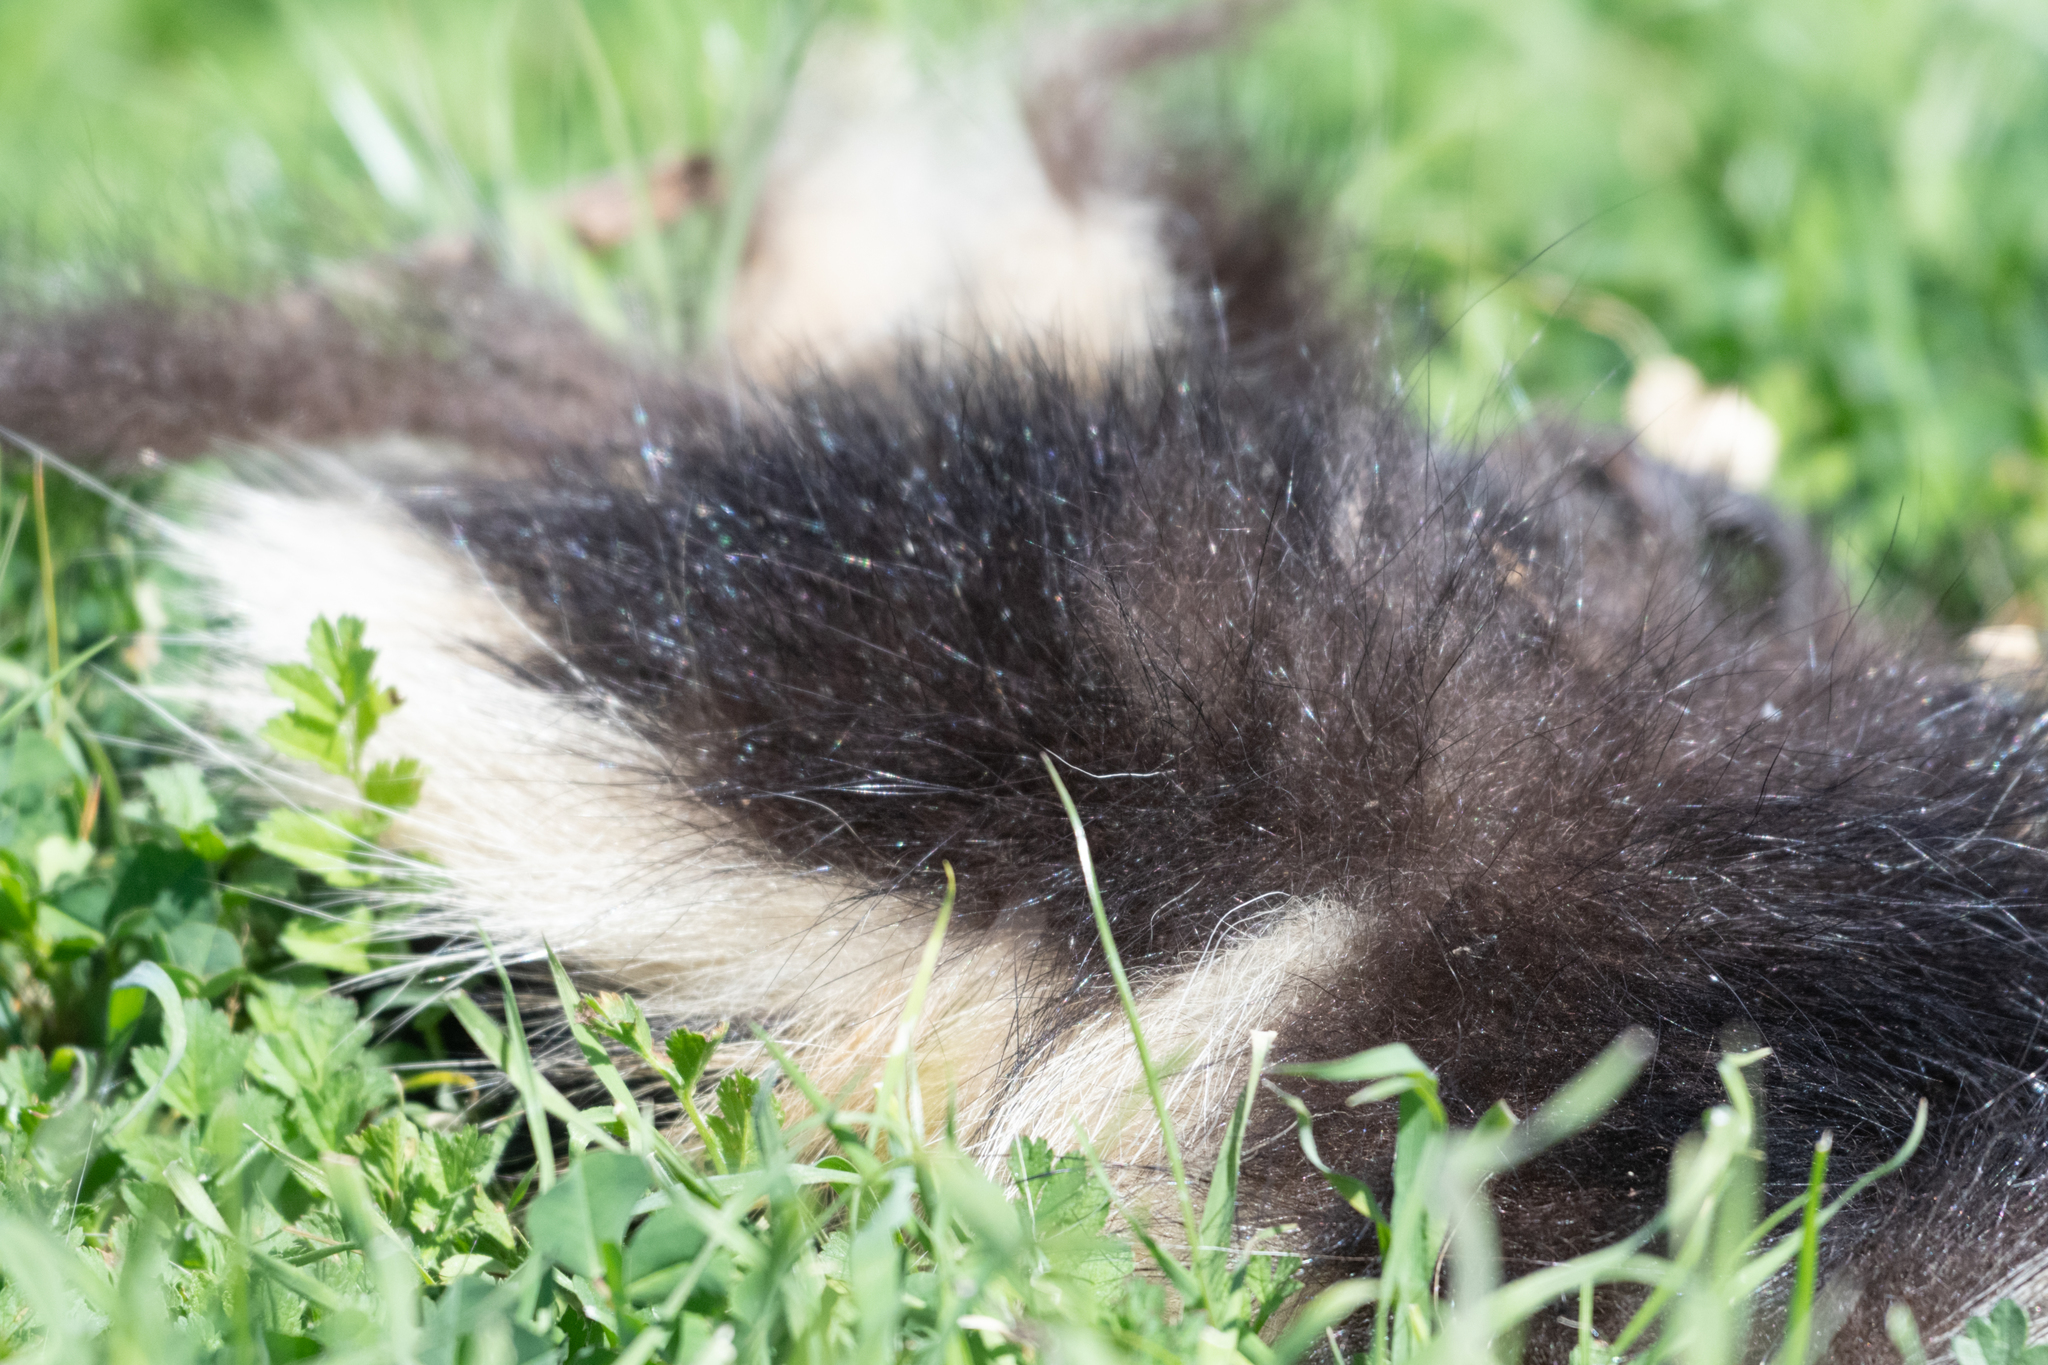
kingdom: Animalia
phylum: Chordata
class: Mammalia
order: Carnivora
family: Mephitidae
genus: Mephitis
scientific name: Mephitis mephitis
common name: Striped skunk
